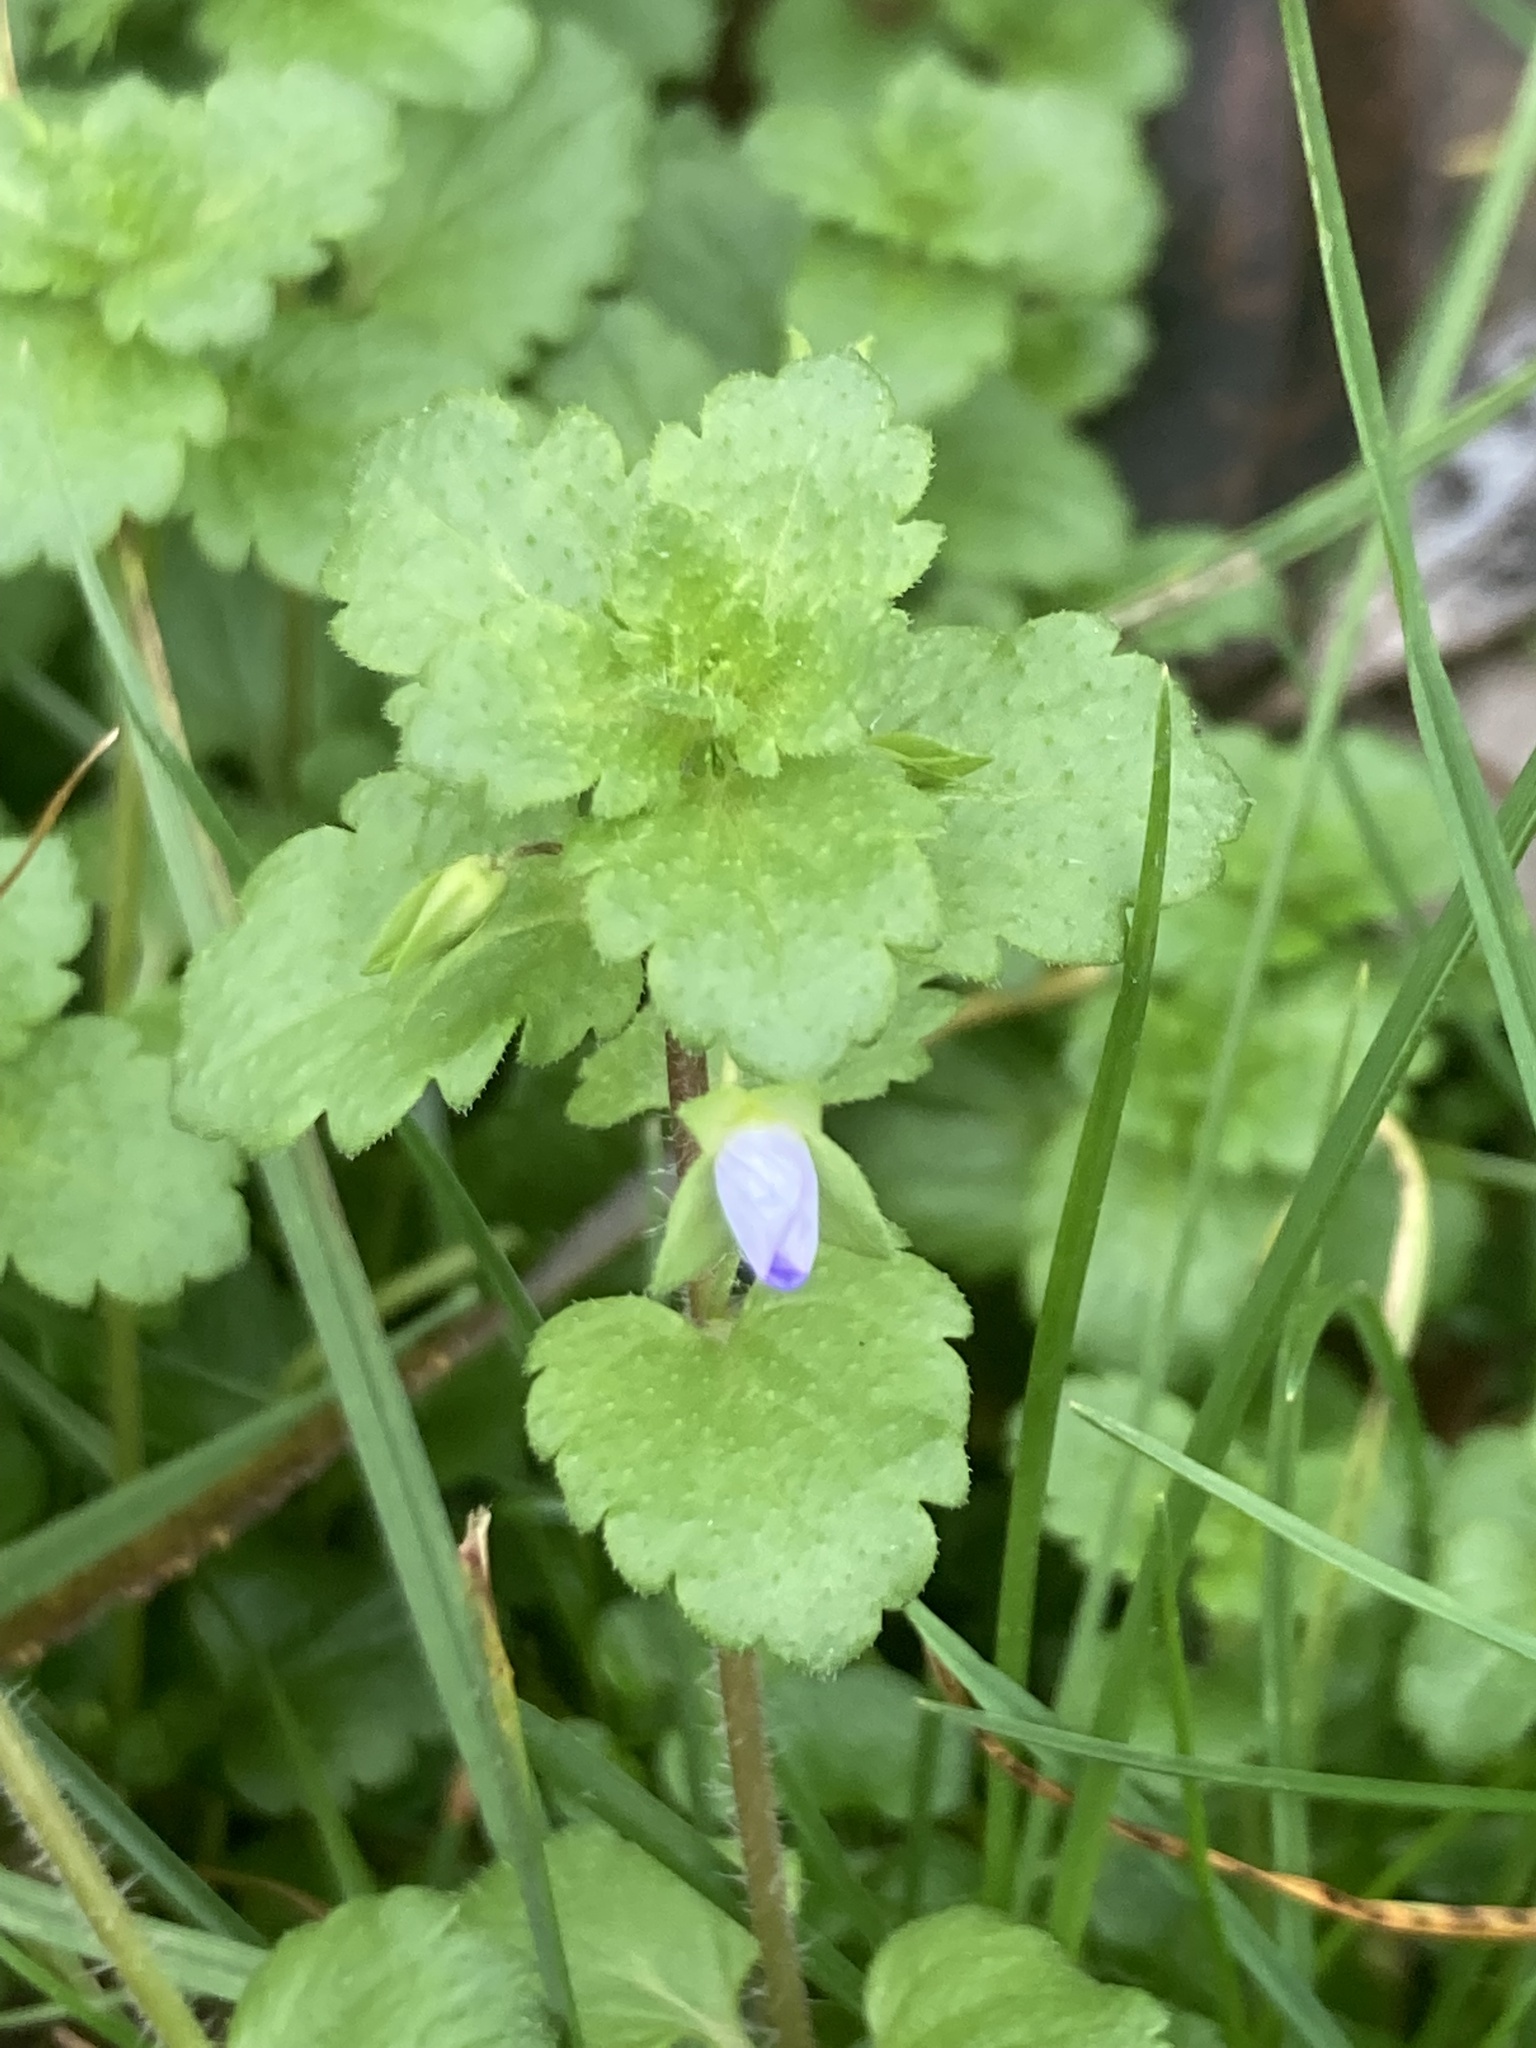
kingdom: Plantae
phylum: Tracheophyta
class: Magnoliopsida
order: Lamiales
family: Plantaginaceae
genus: Veronica
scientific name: Veronica persica
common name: Common field-speedwell
